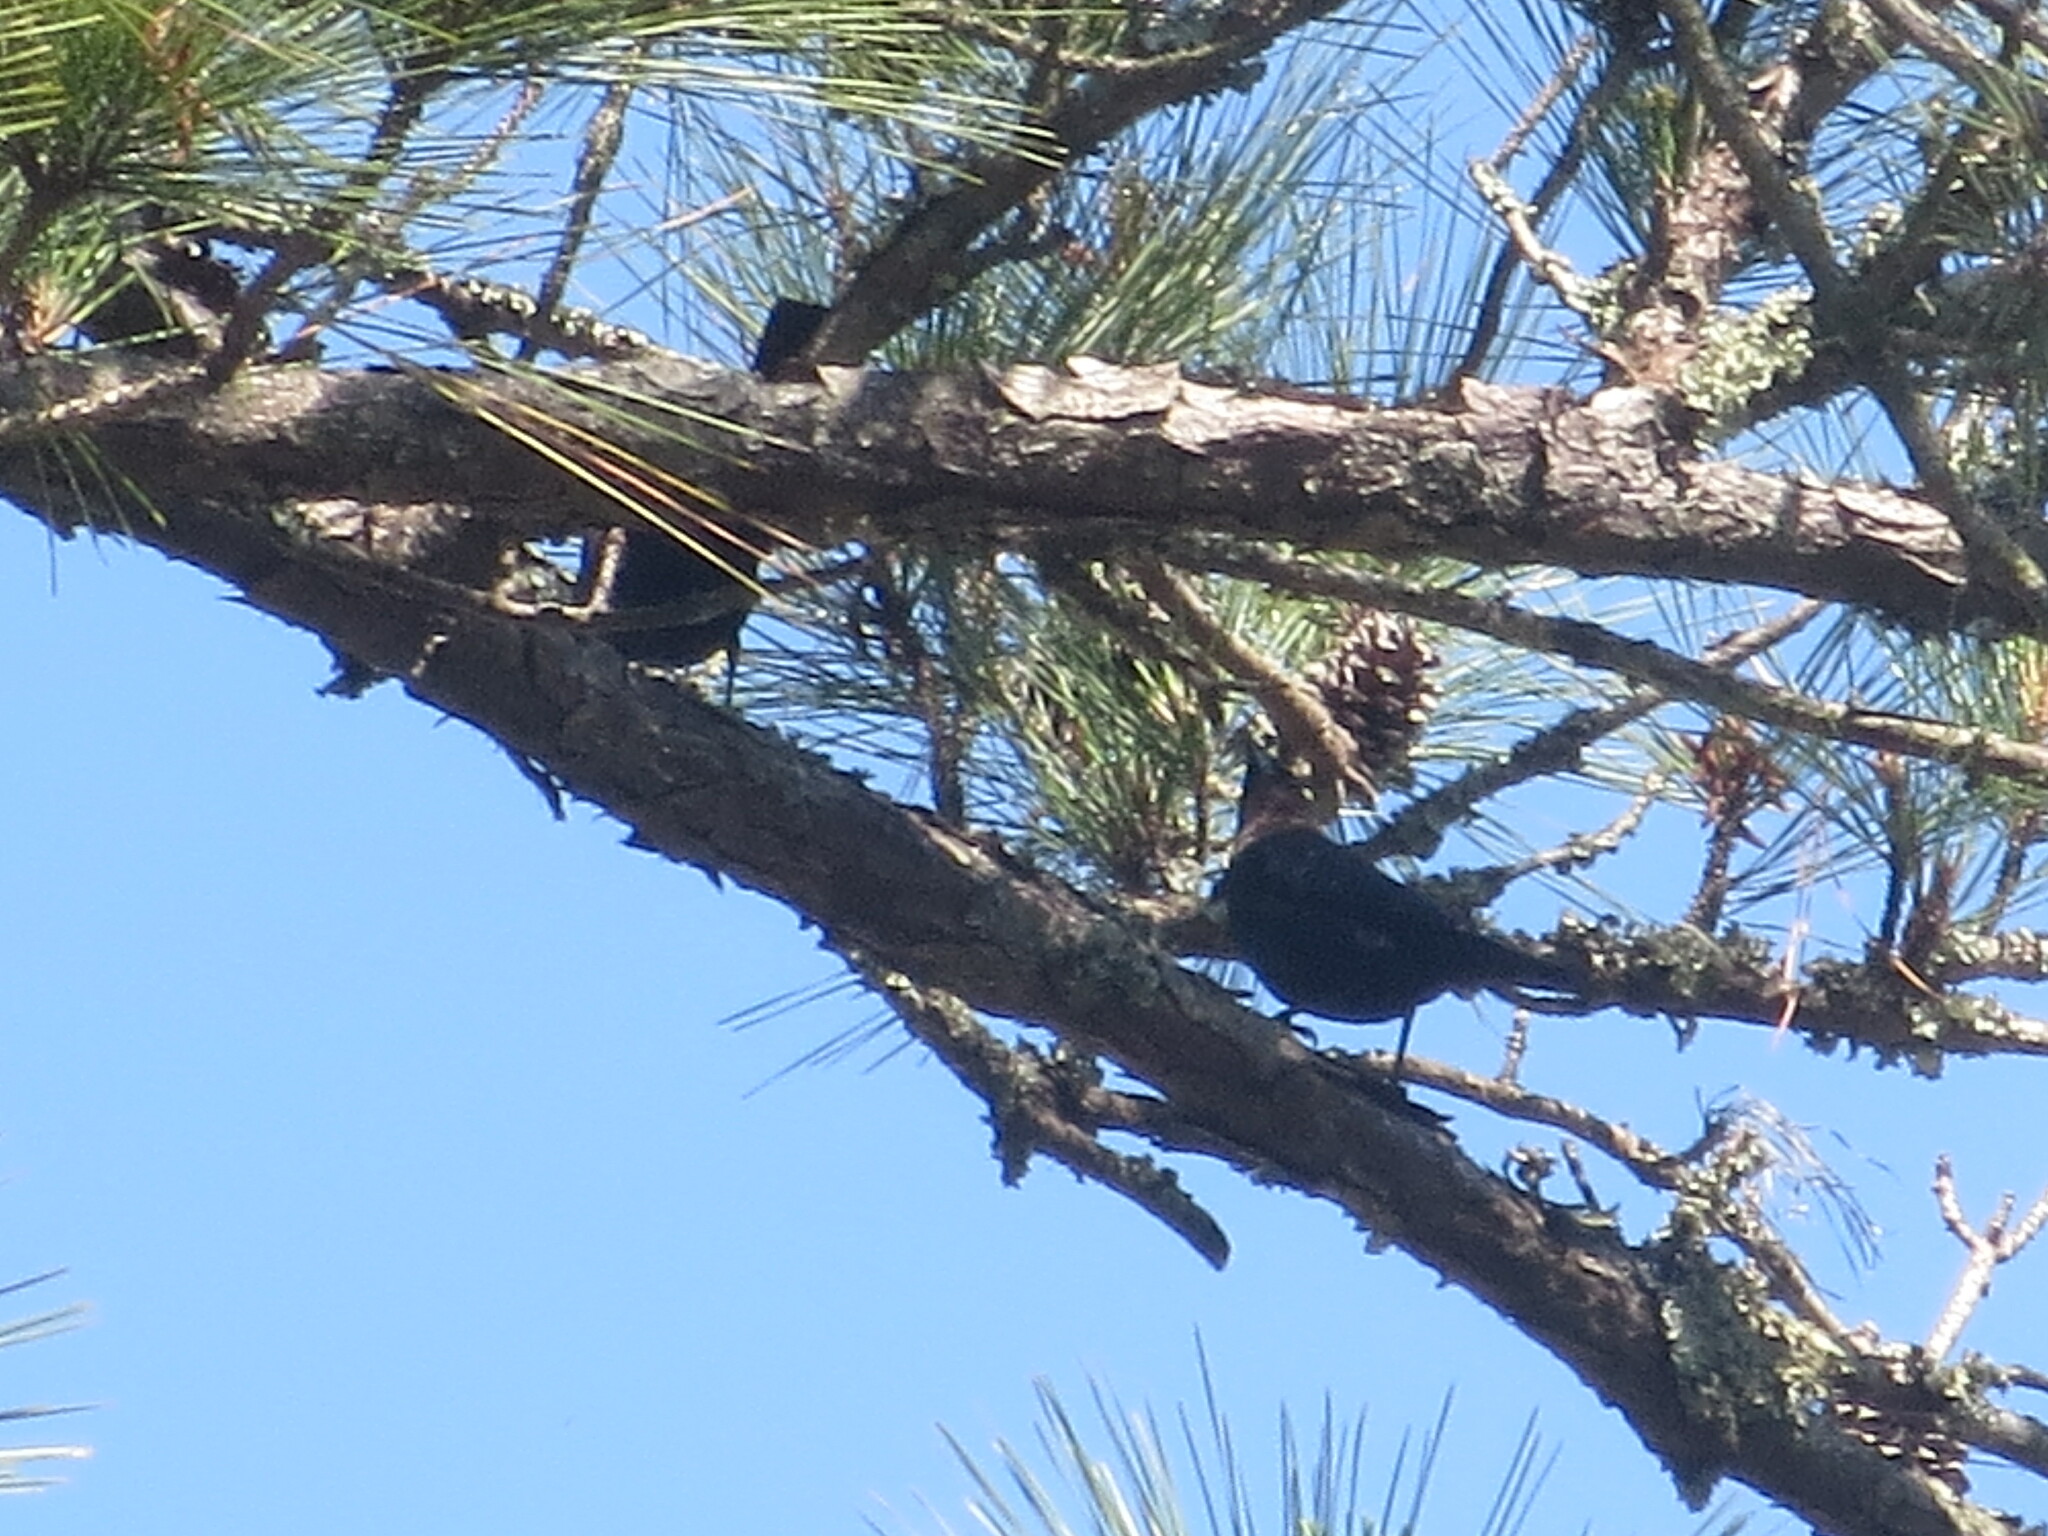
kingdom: Animalia
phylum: Chordata
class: Aves
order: Passeriformes
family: Icteridae
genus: Molothrus
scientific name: Molothrus ater
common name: Brown-headed cowbird
